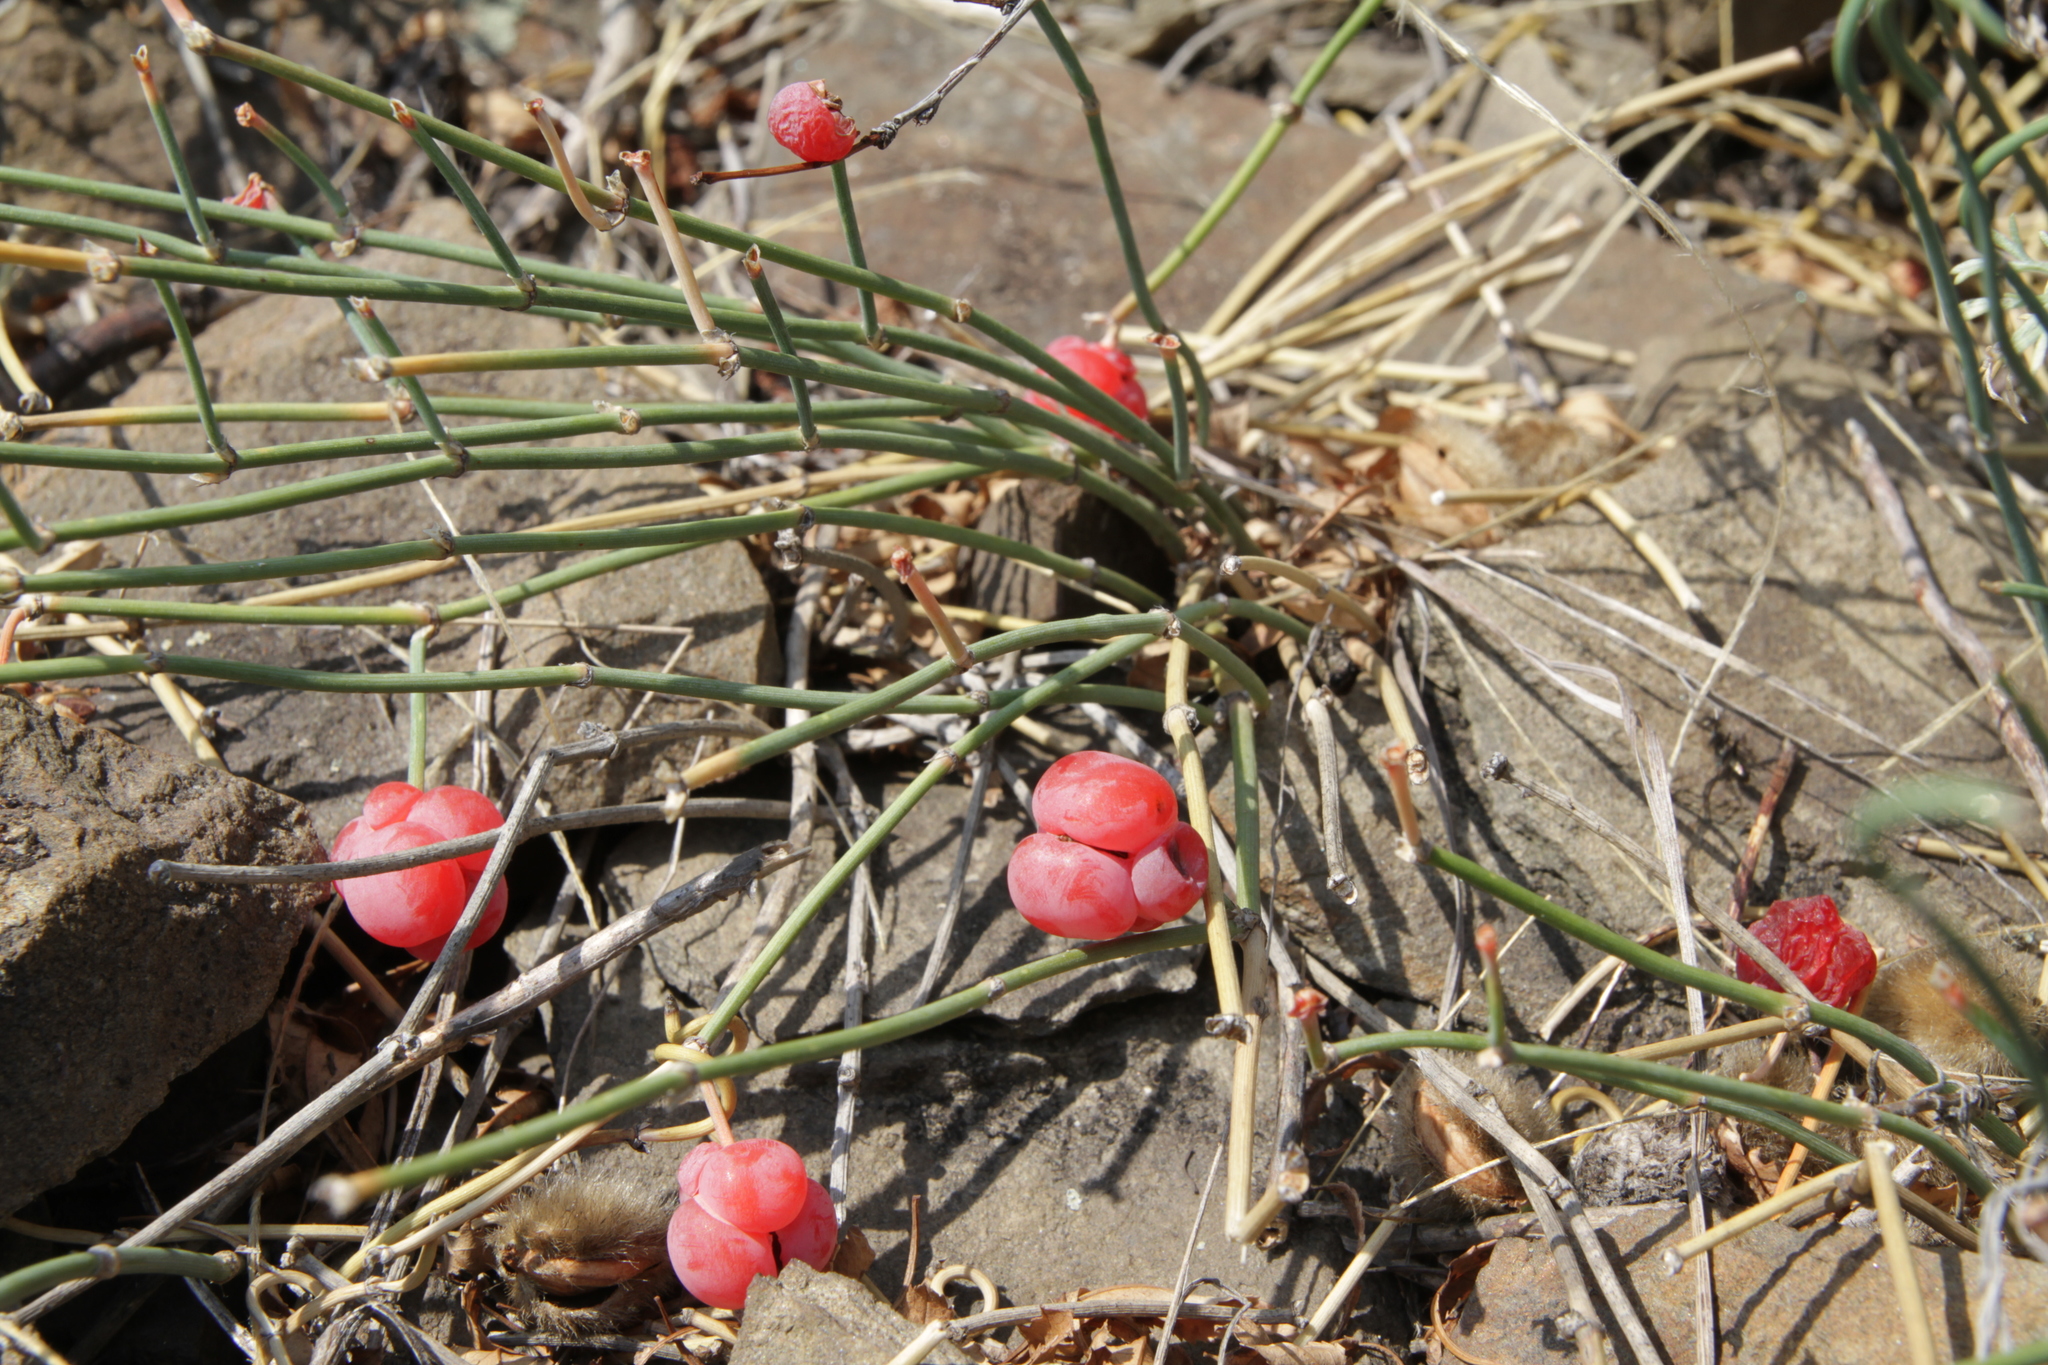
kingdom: Plantae
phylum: Tracheophyta
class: Gnetopsida
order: Ephedrales
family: Ephedraceae
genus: Ephedra
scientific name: Ephedra distachya
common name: Sea grape
